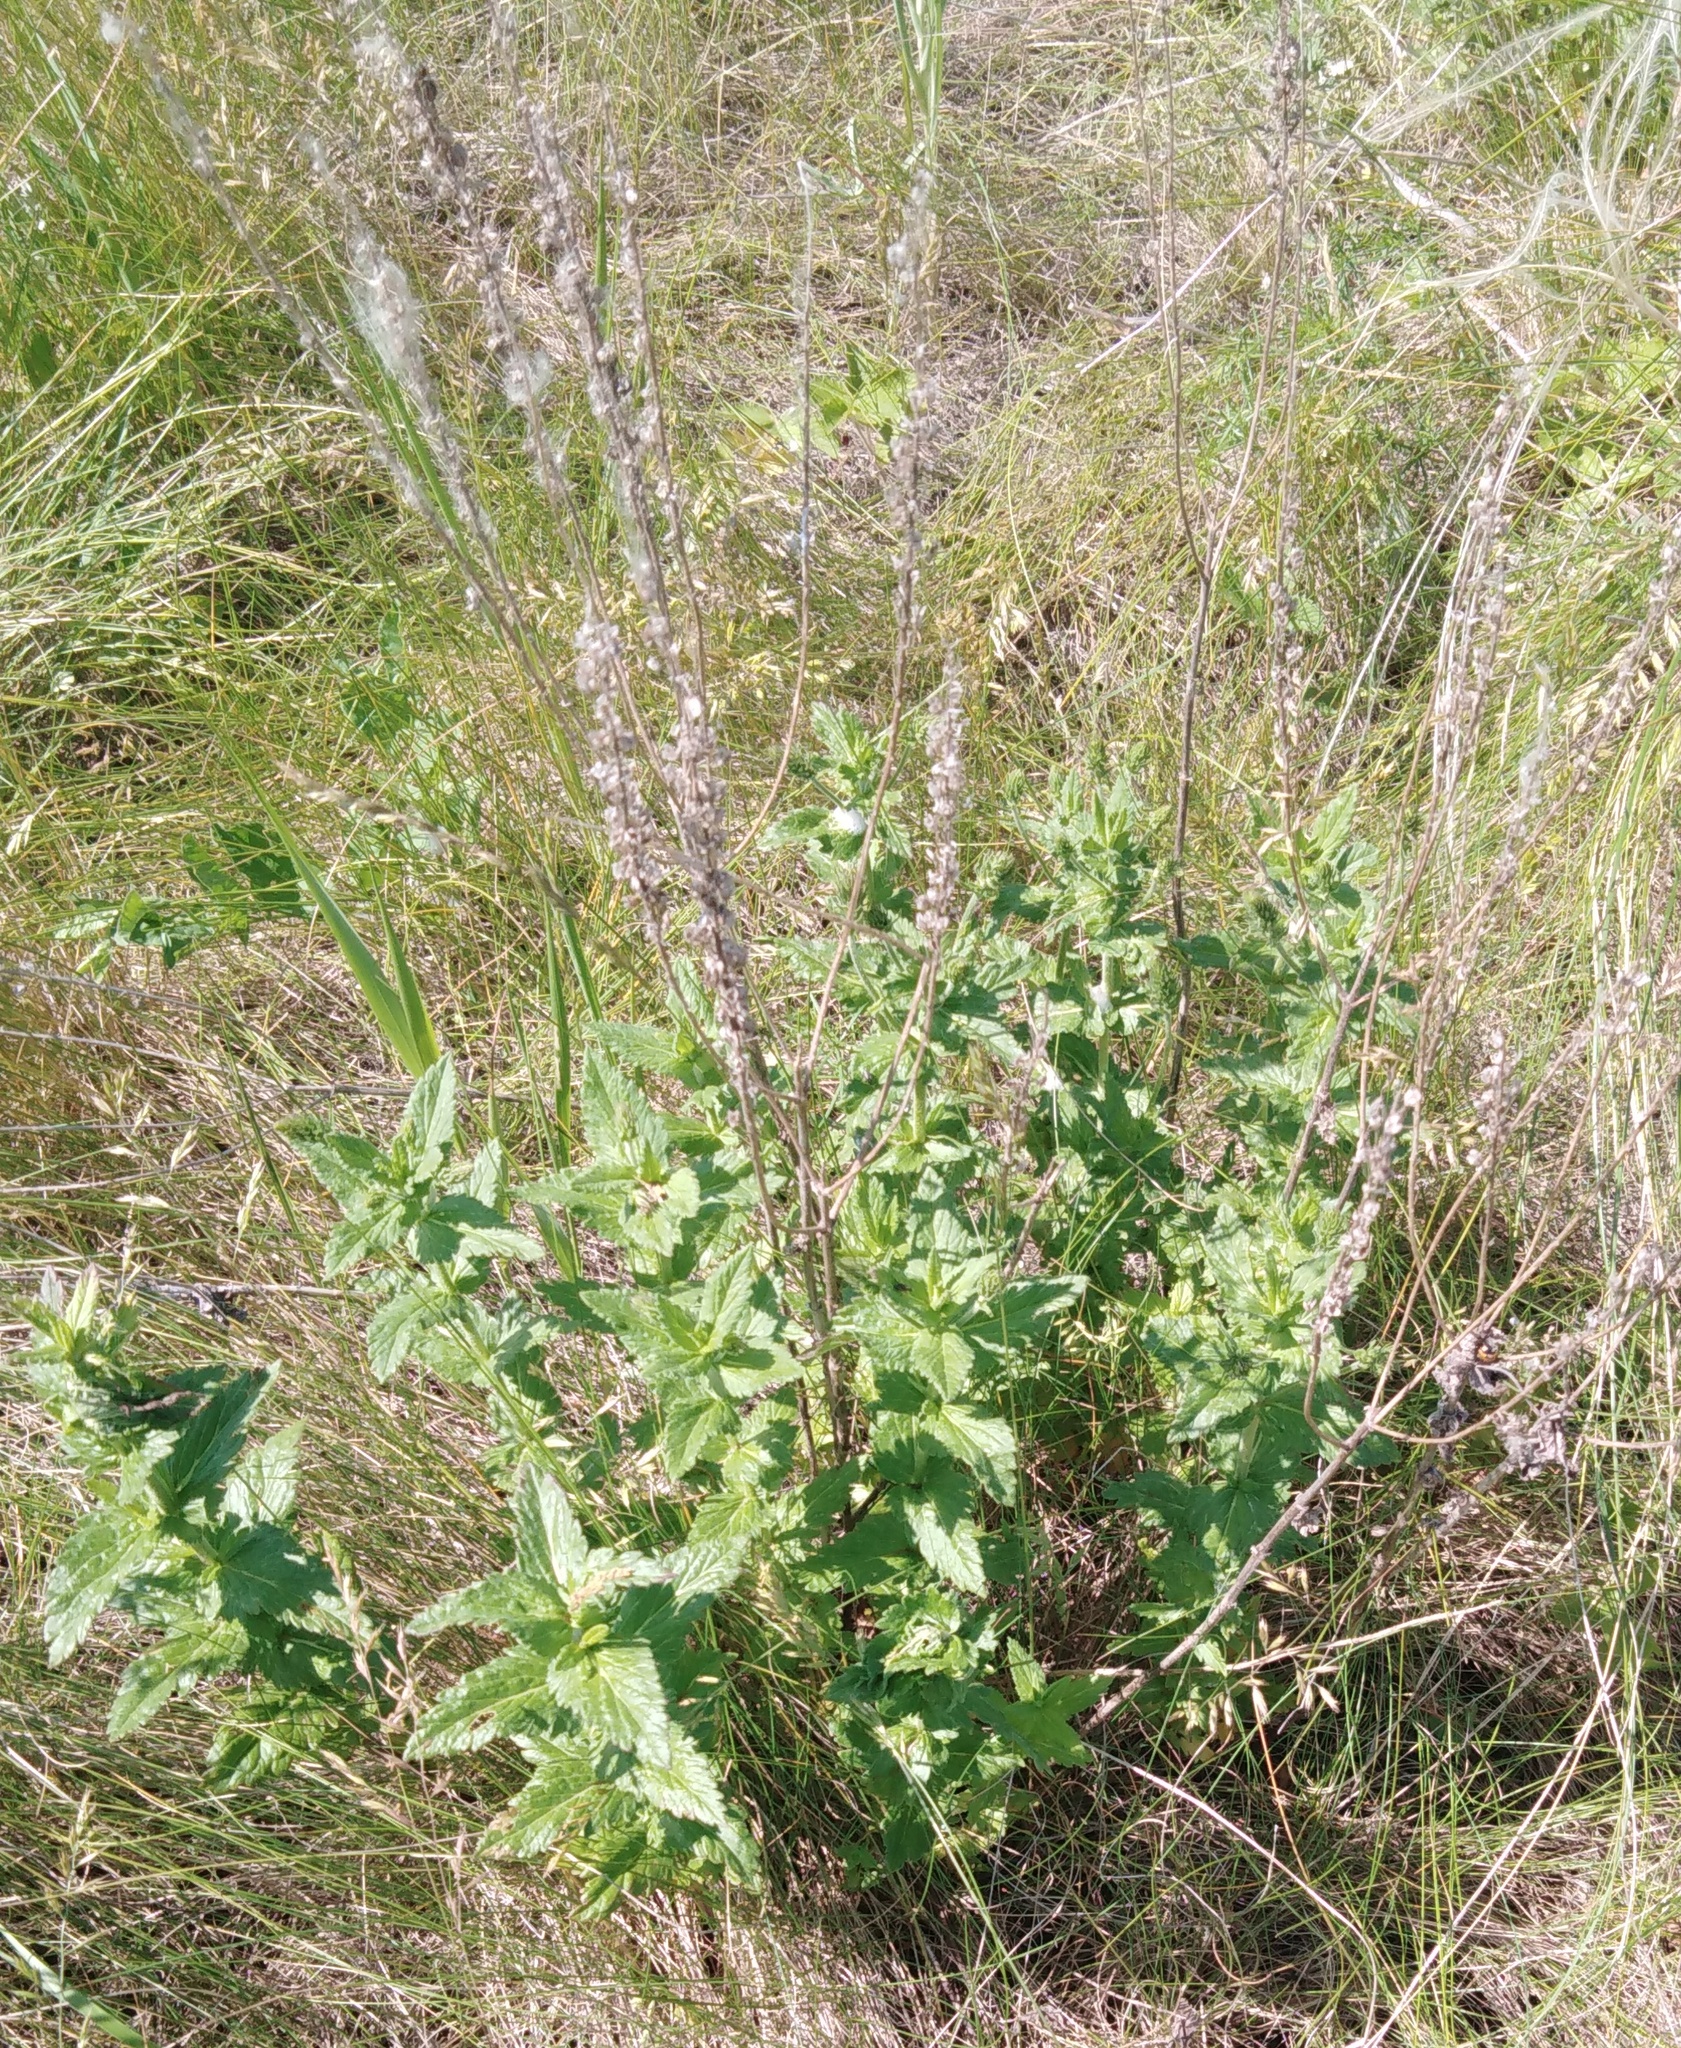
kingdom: Plantae
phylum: Tracheophyta
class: Magnoliopsida
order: Lamiales
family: Plantaginaceae
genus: Veronica
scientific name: Veronica teucrium
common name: Large speedwell
